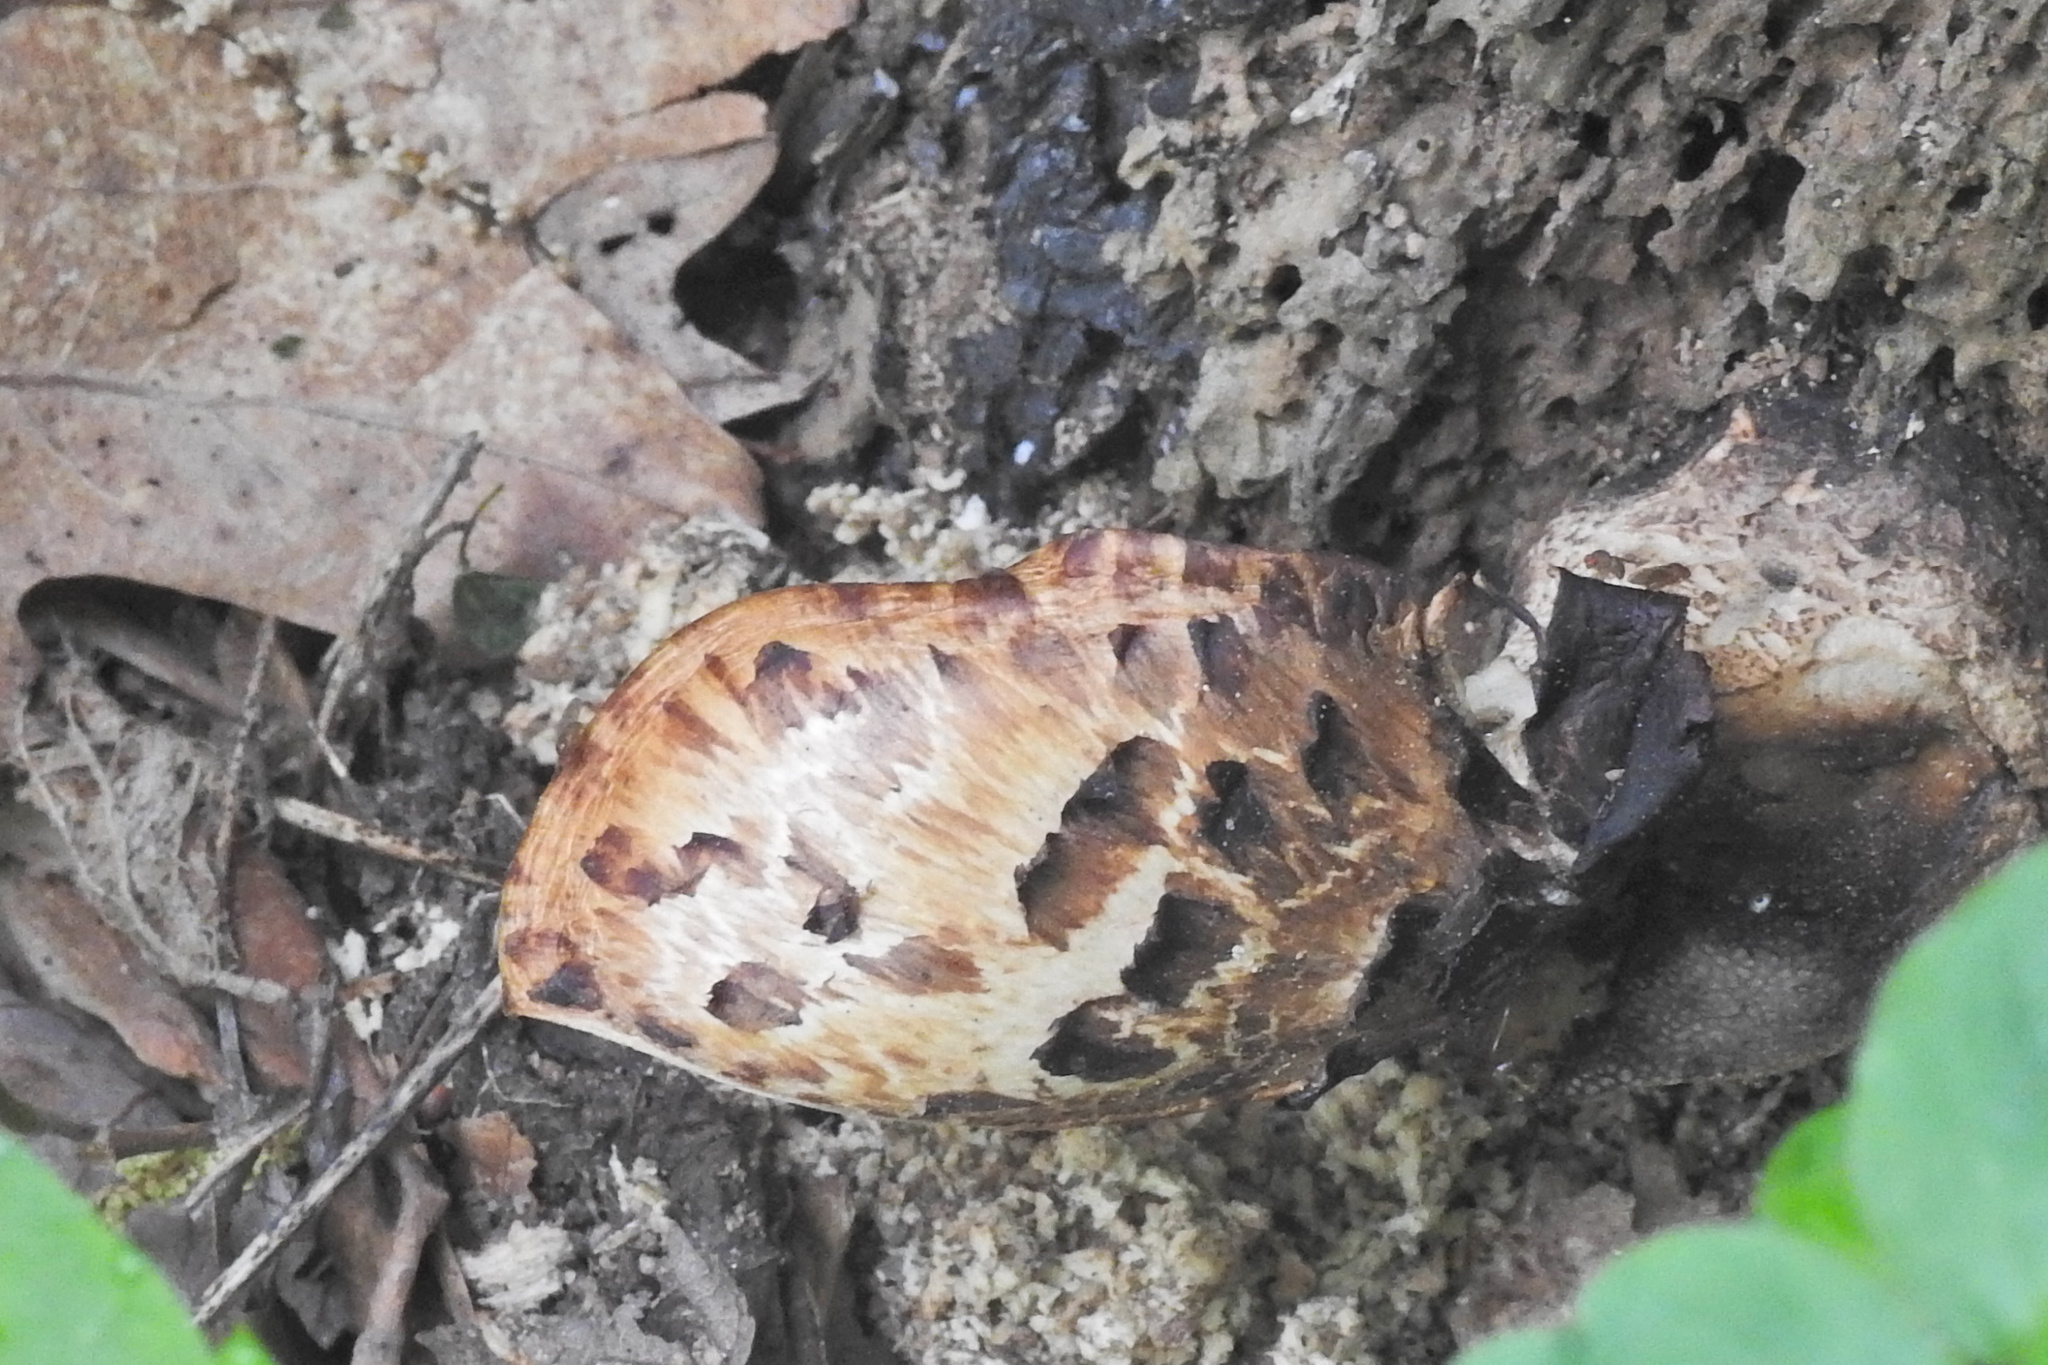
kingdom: Fungi
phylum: Basidiomycota
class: Agaricomycetes
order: Polyporales
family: Polyporaceae
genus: Cerioporus
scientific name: Cerioporus squamosus
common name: Dryad's saddle
